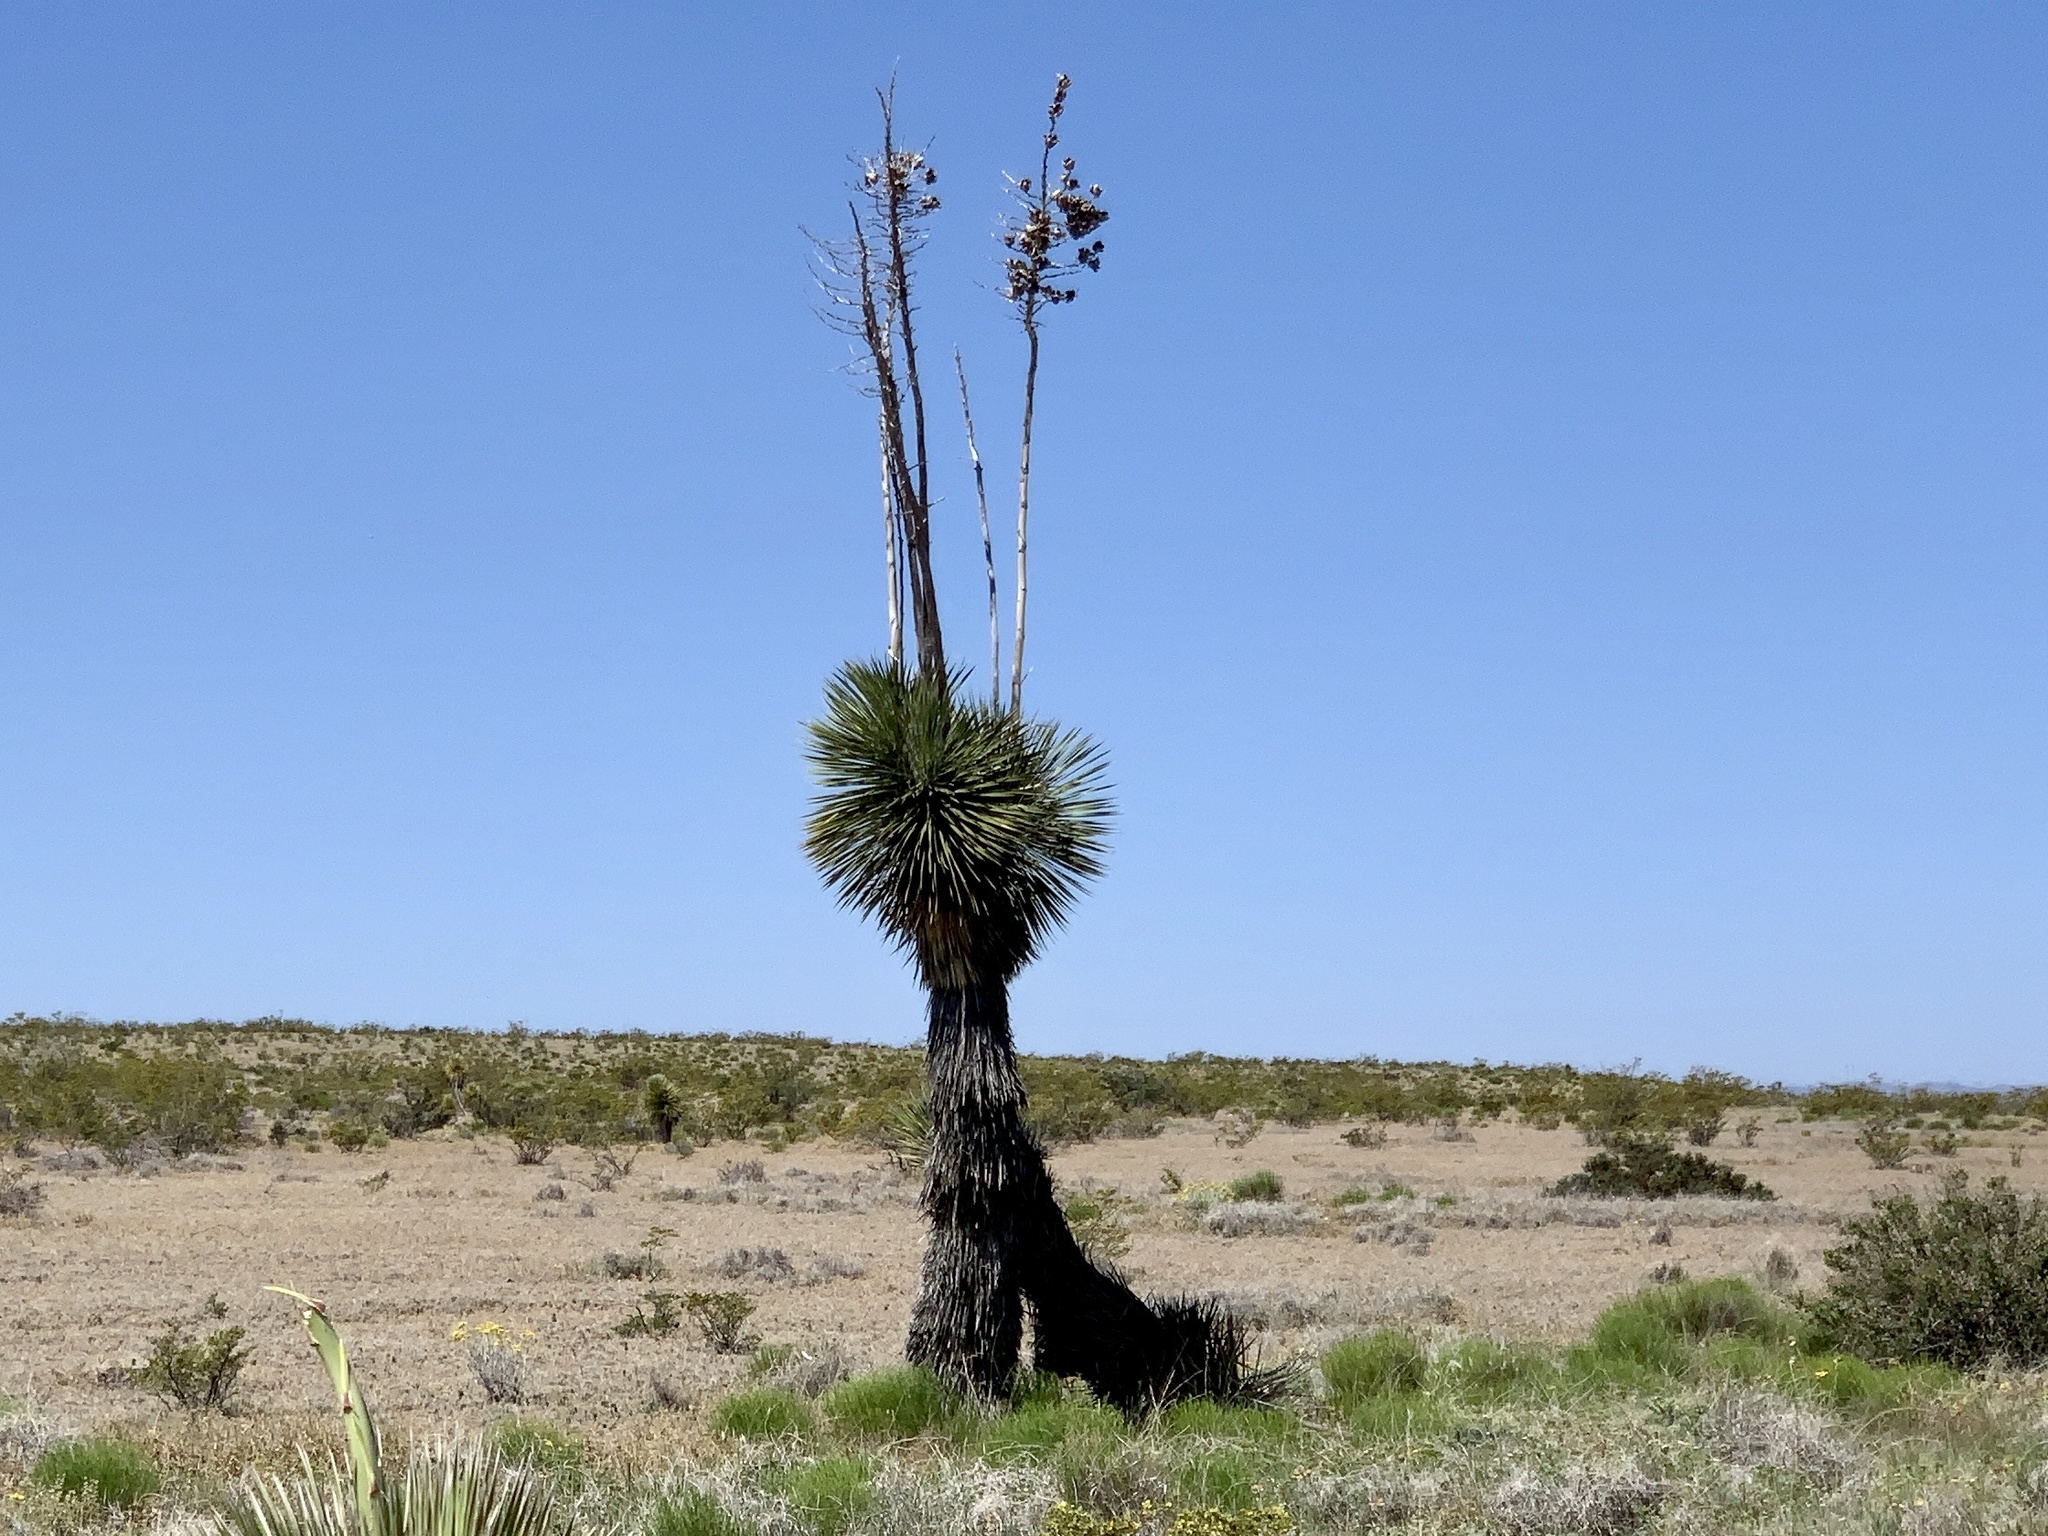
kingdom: Plantae
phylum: Tracheophyta
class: Liliopsida
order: Asparagales
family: Asparagaceae
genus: Yucca
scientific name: Yucca elata
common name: Palmella
